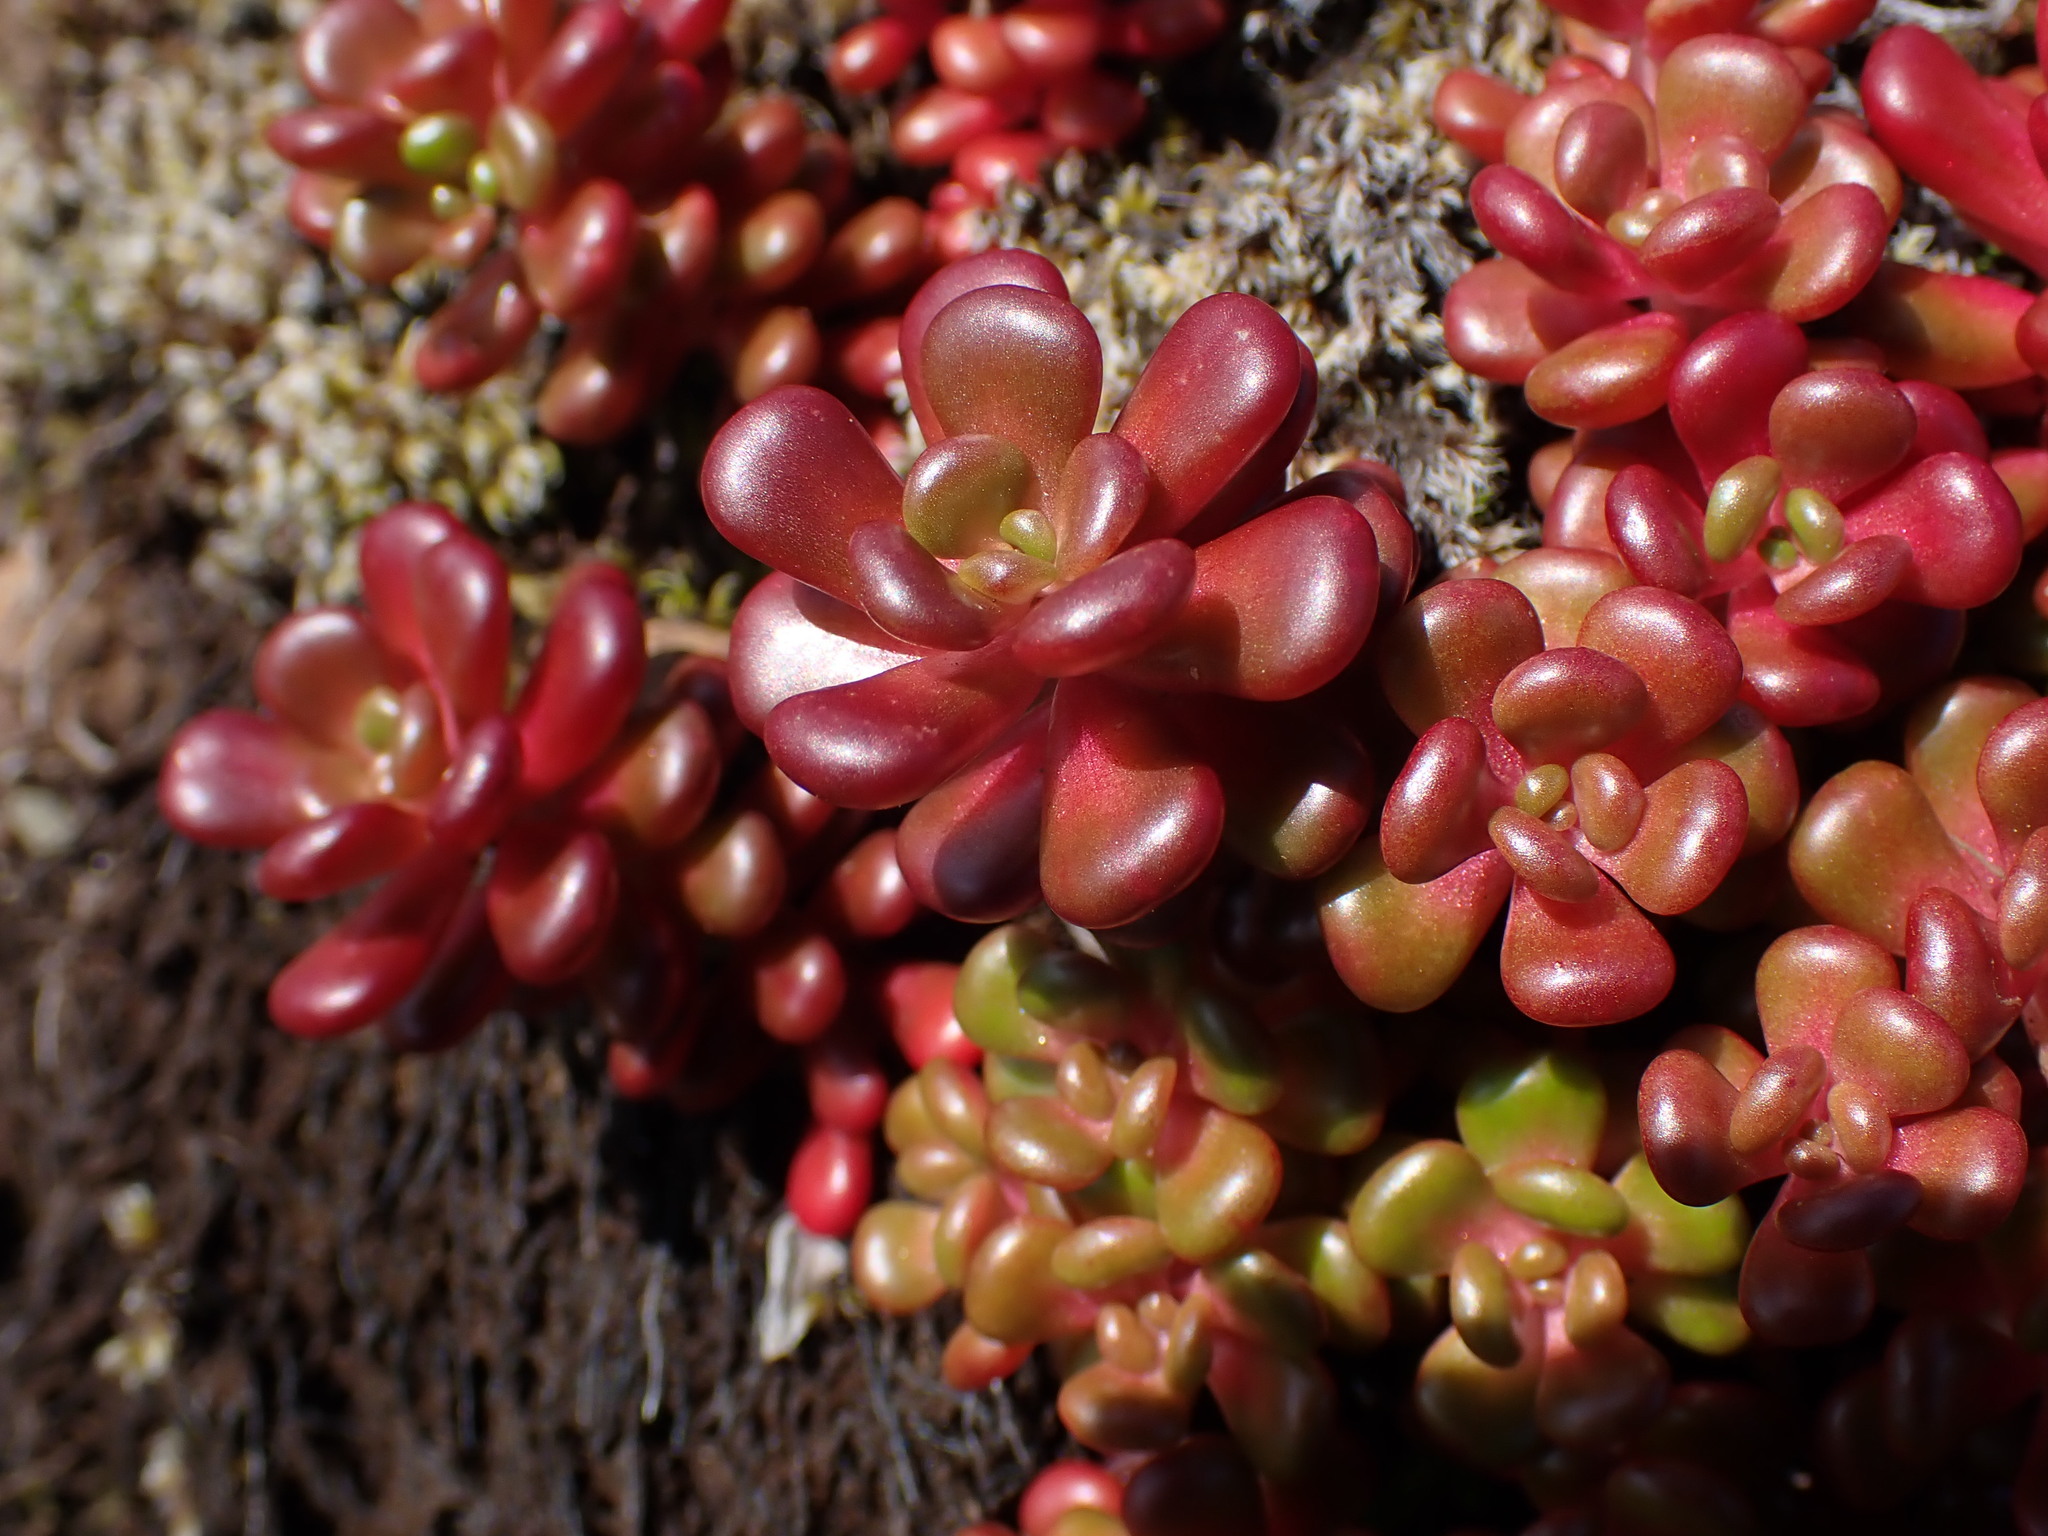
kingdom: Plantae
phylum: Tracheophyta
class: Magnoliopsida
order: Saxifragales
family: Crassulaceae
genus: Sedum
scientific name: Sedum oreganum
